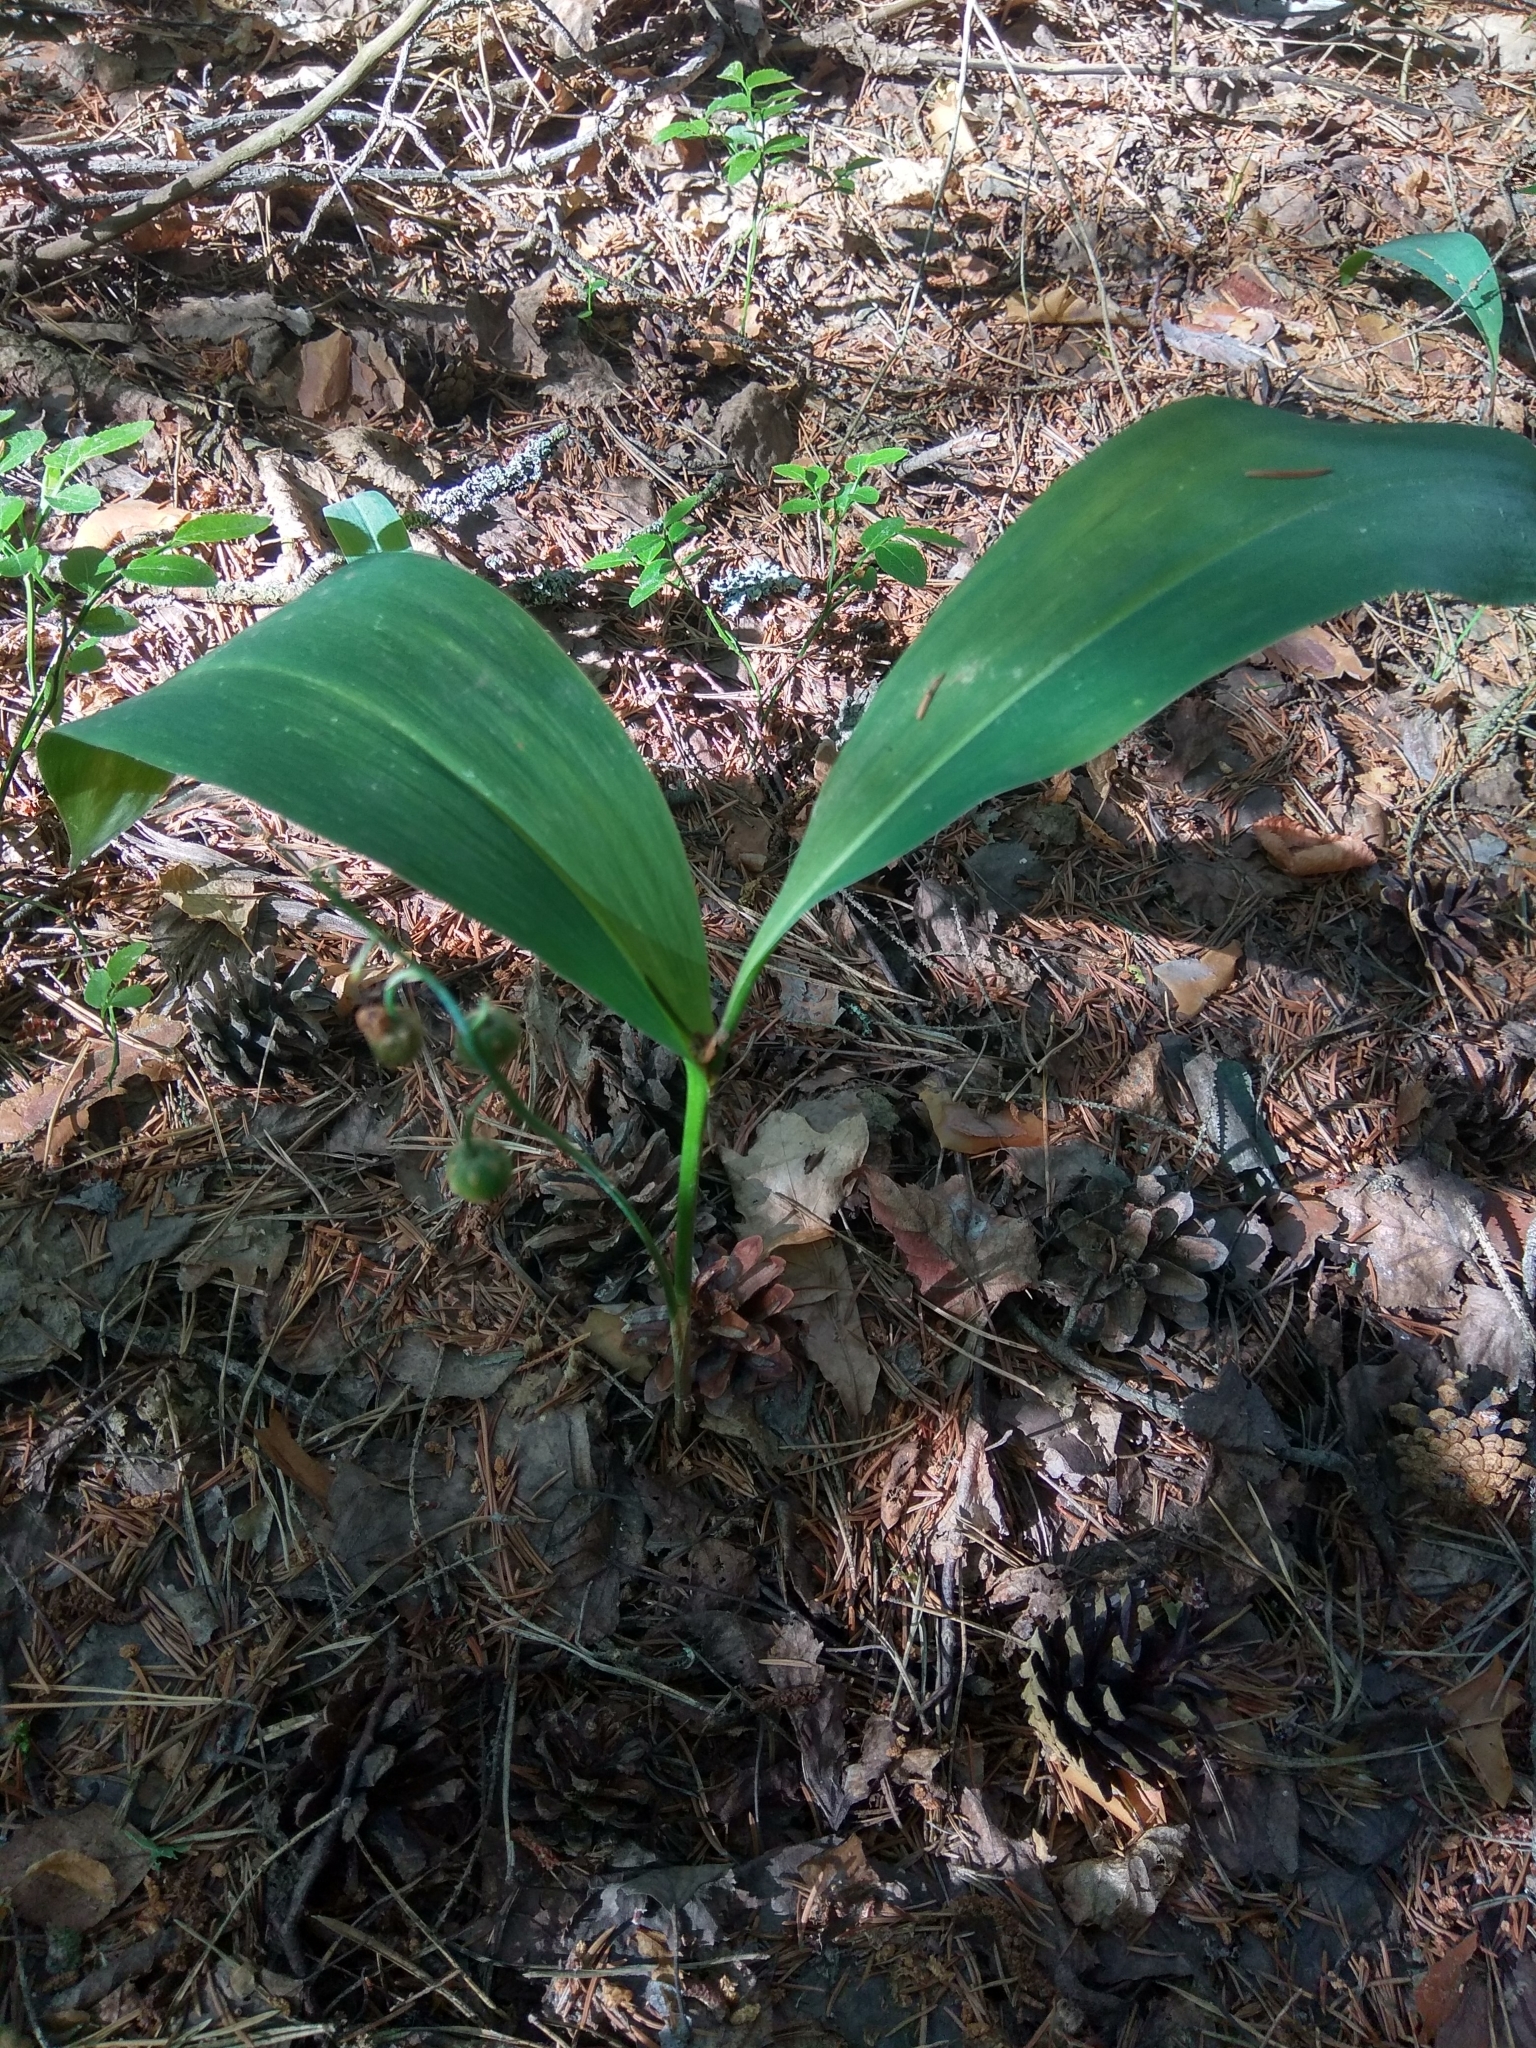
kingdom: Plantae
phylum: Tracheophyta
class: Liliopsida
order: Asparagales
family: Asparagaceae
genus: Convallaria
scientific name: Convallaria majalis
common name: Lily-of-the-valley
